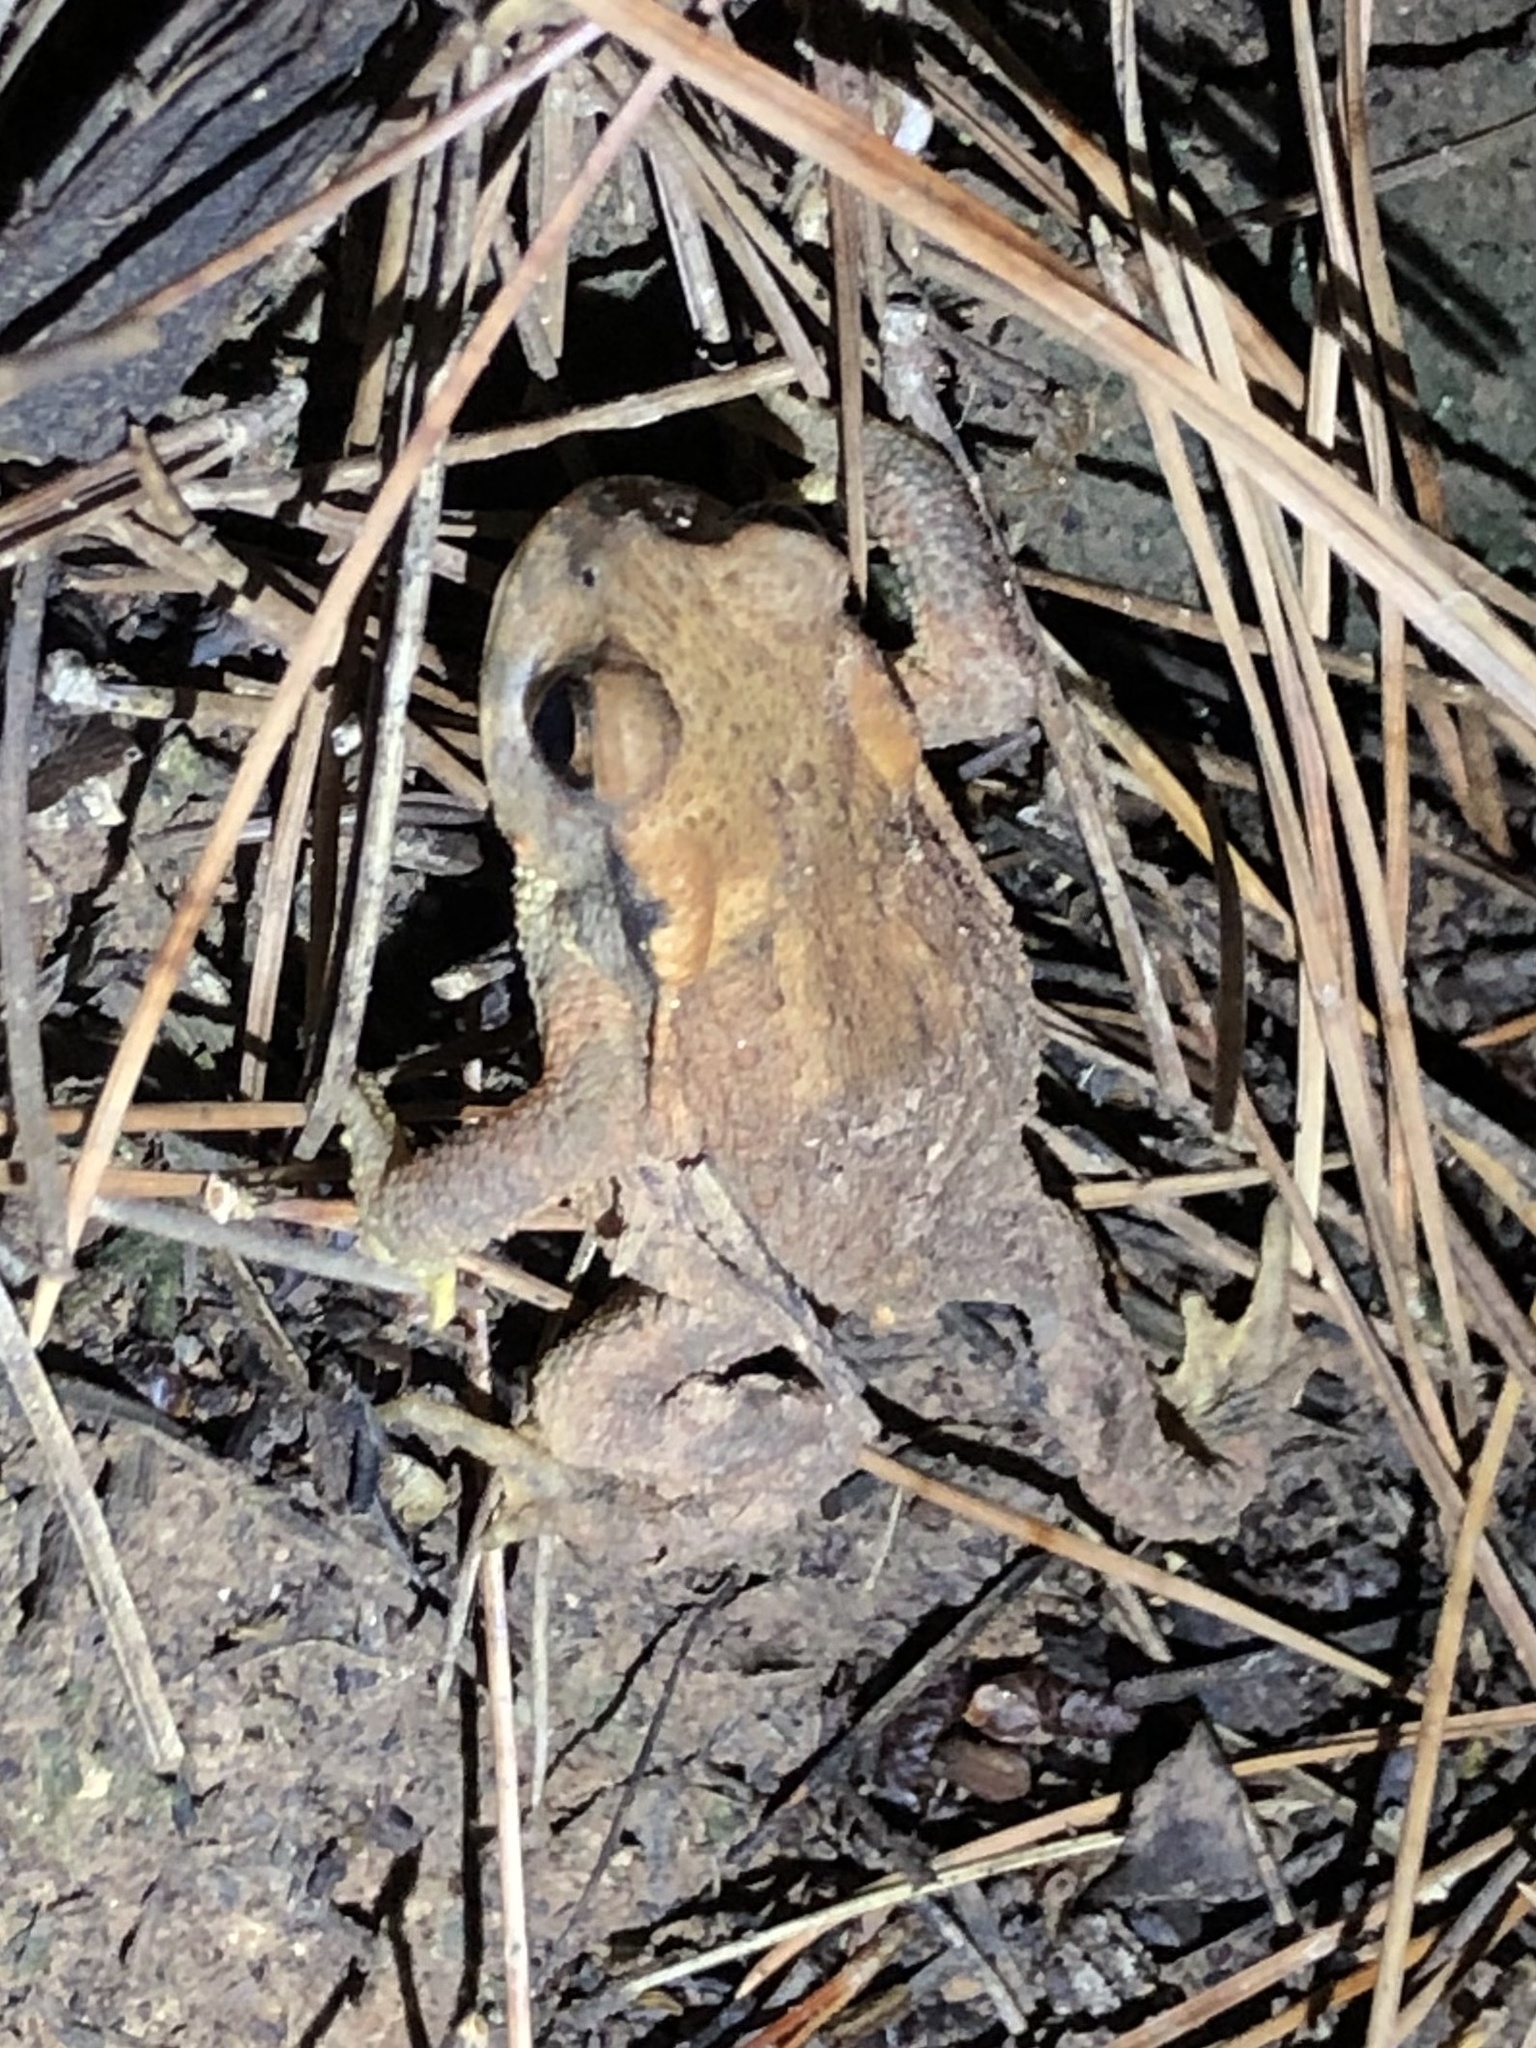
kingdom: Animalia
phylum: Chordata
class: Amphibia
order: Anura
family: Bufonidae
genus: Bufo
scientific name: Bufo spinosus
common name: Western common toad
